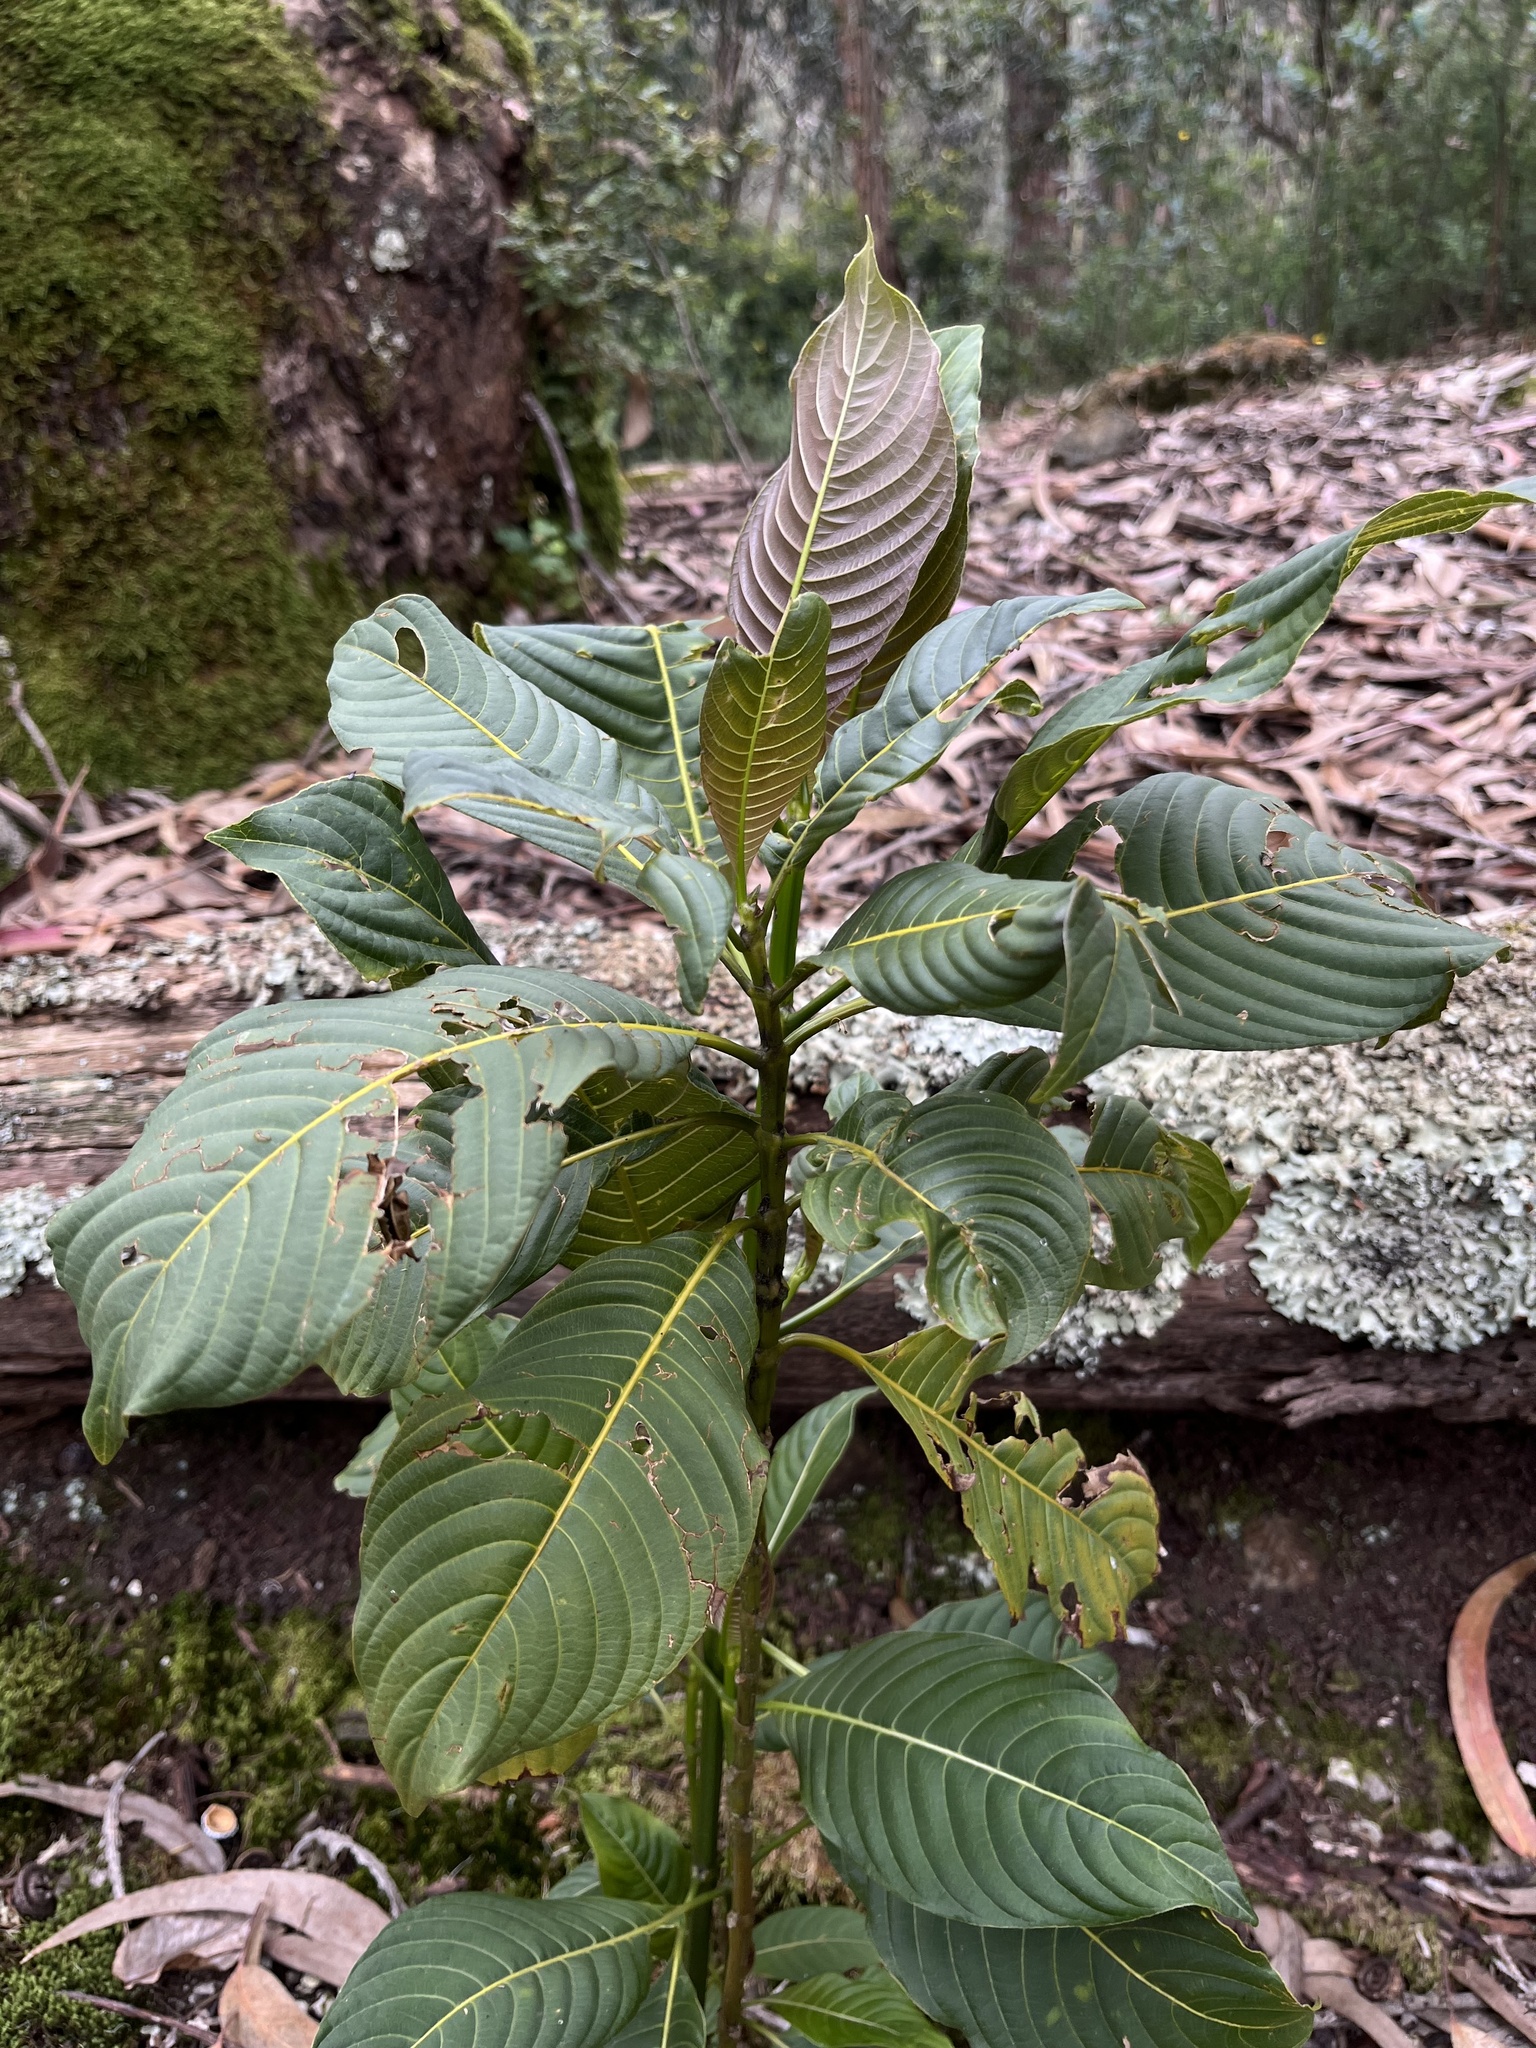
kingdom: Plantae
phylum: Tracheophyta
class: Magnoliopsida
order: Gentianales
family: Rubiaceae
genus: Palicourea
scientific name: Palicourea paniculata
